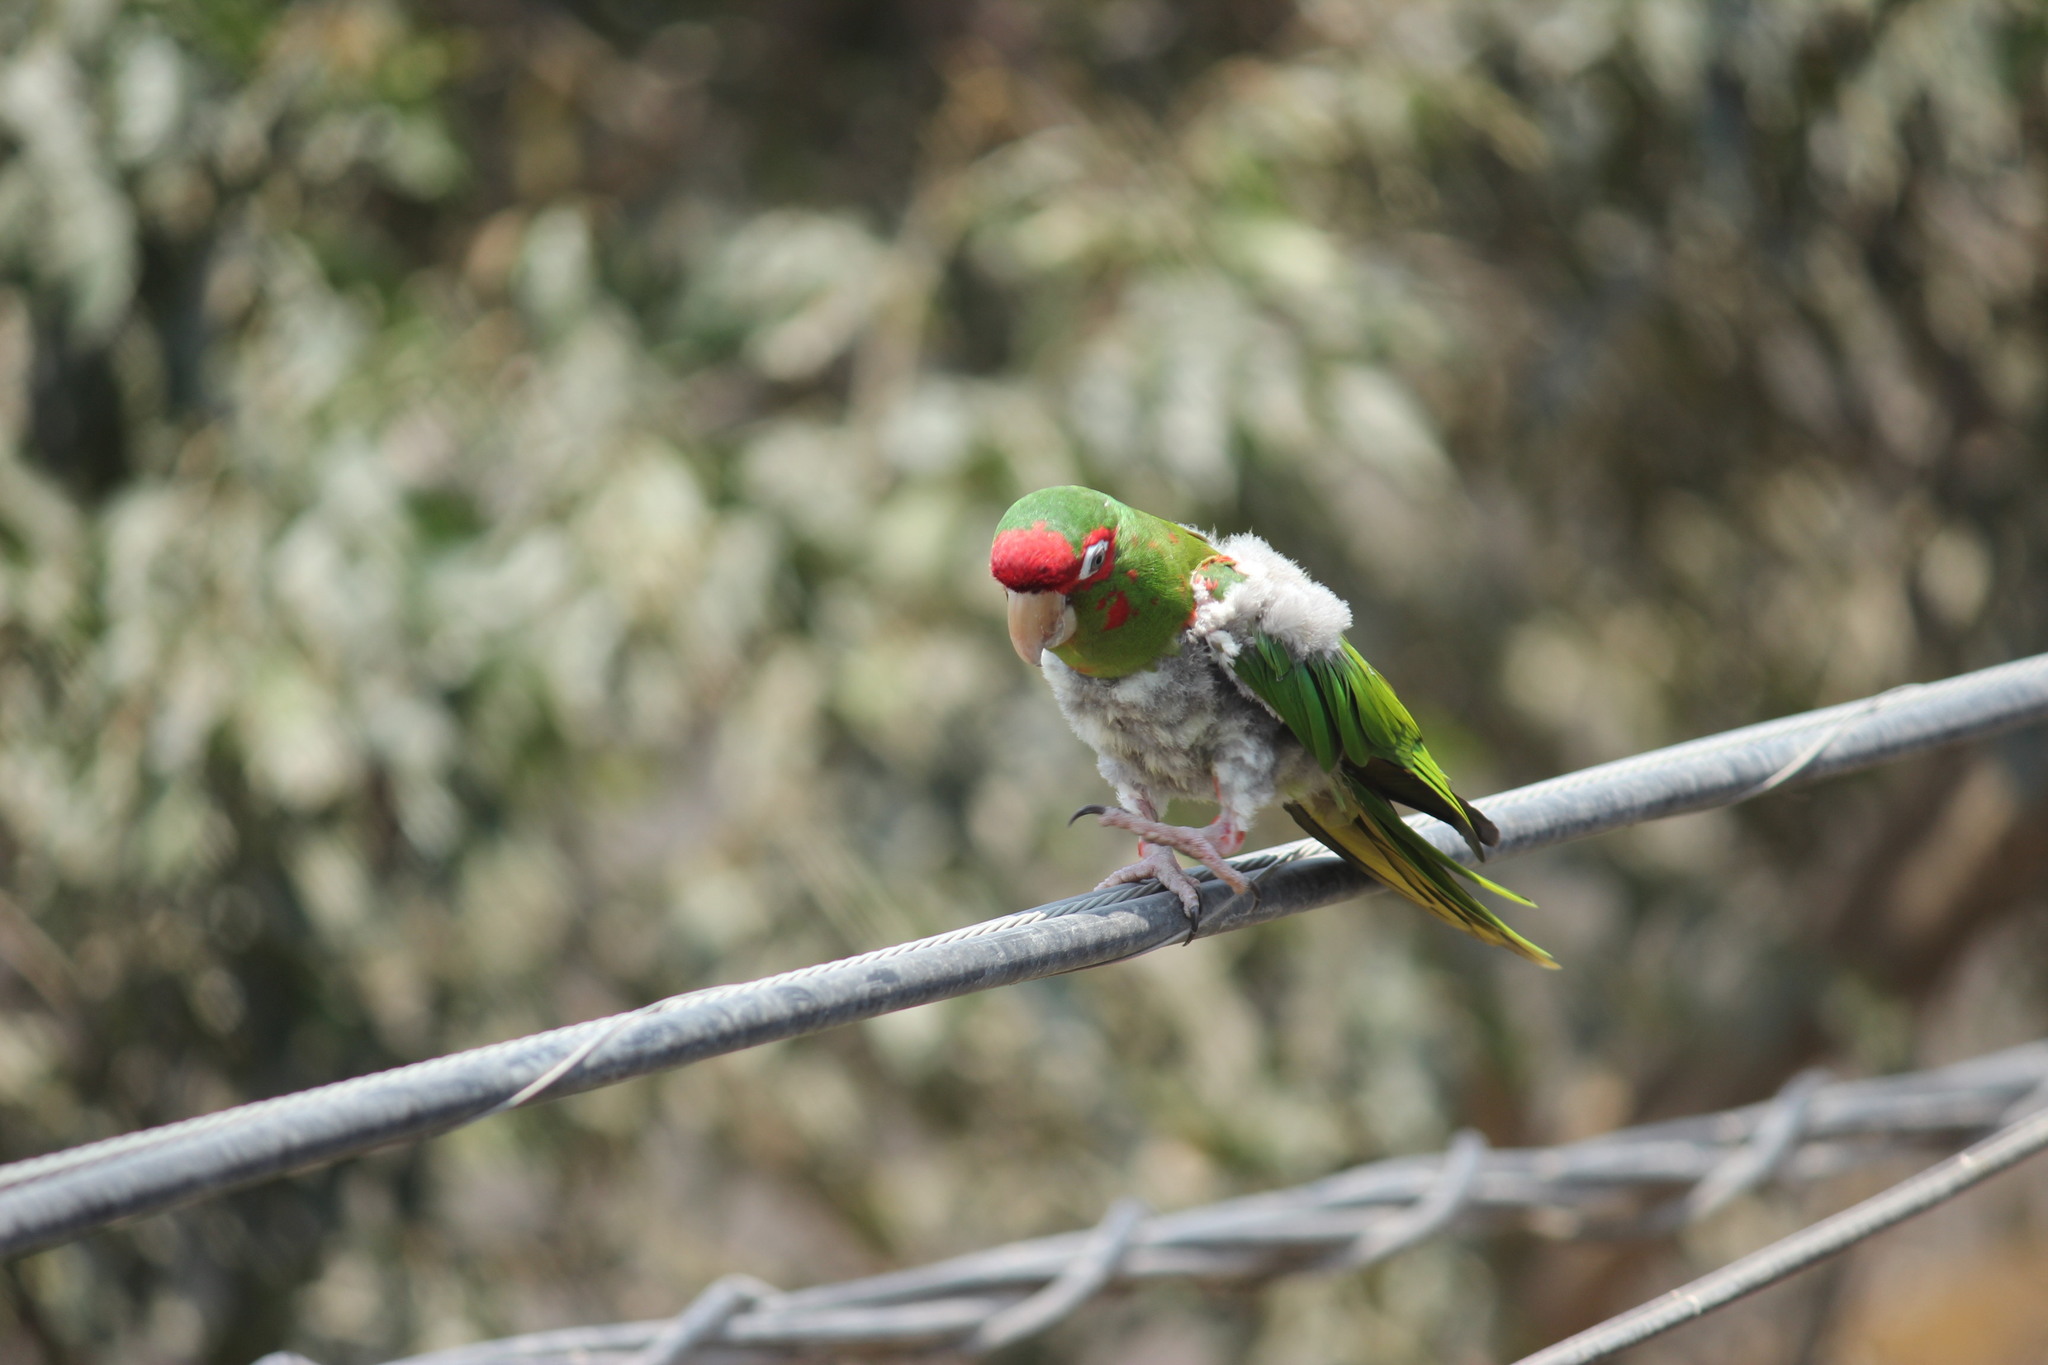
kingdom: Animalia
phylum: Chordata
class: Aves
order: Psittaciformes
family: Psittacidae
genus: Aratinga
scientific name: Aratinga mitrata
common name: Mitred parakeet
